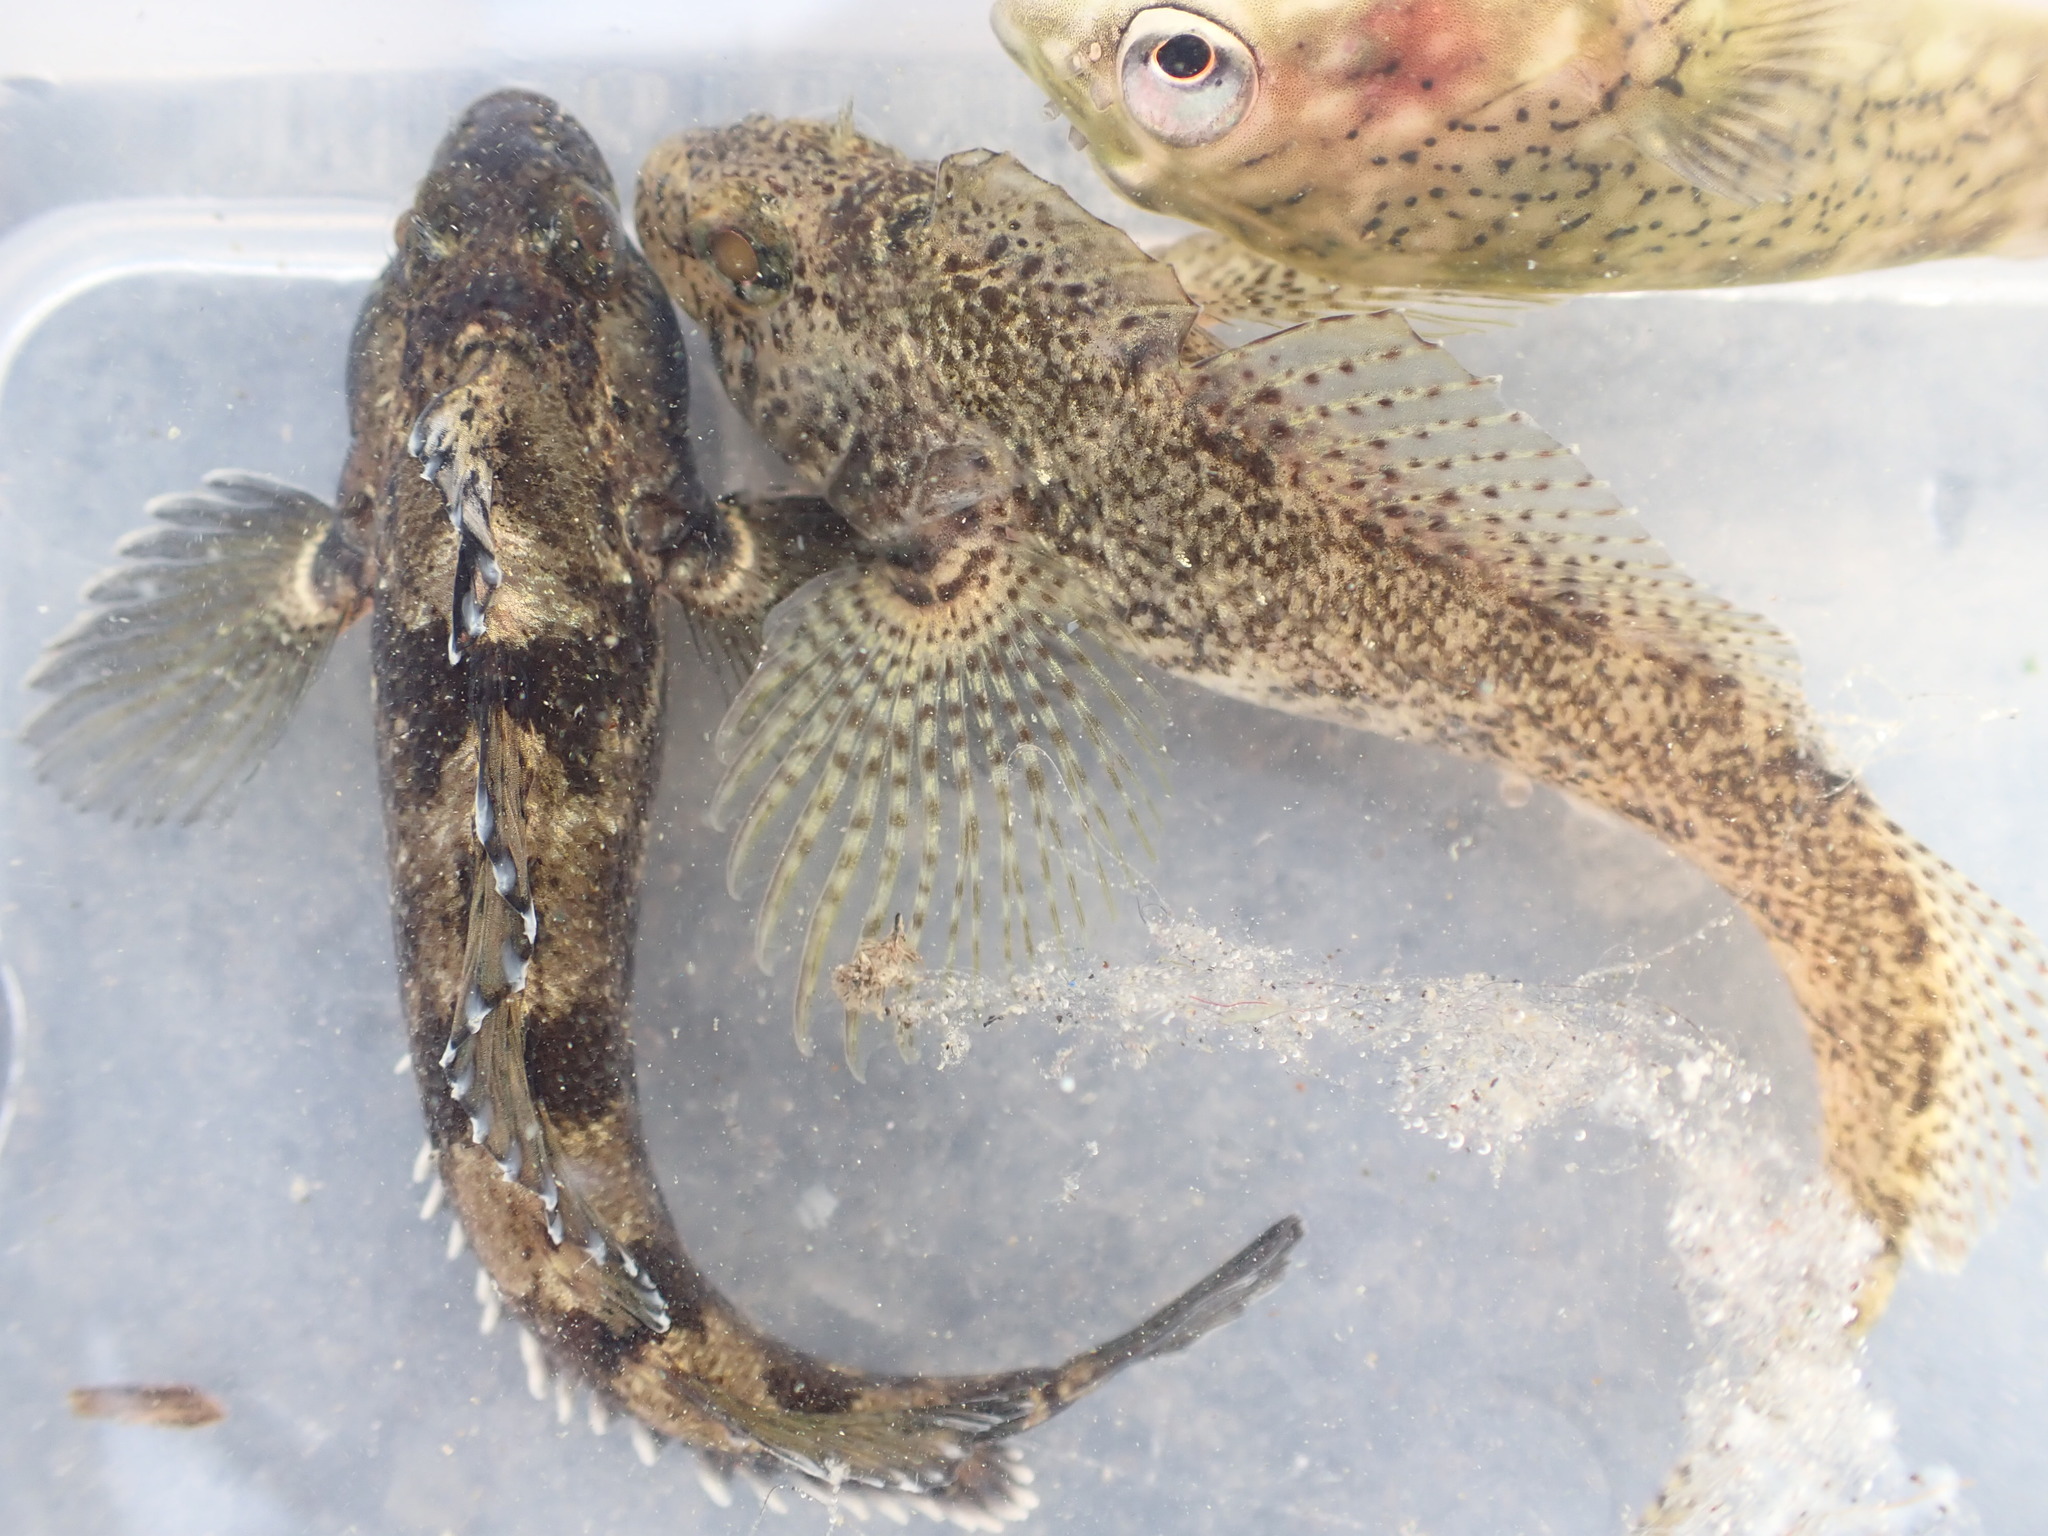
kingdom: Animalia
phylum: Chordata
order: Perciformes
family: Tripterygiidae
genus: Forsterygion
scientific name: Forsterygion gymnotum
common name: Multifid-tentacled robust triplefin
